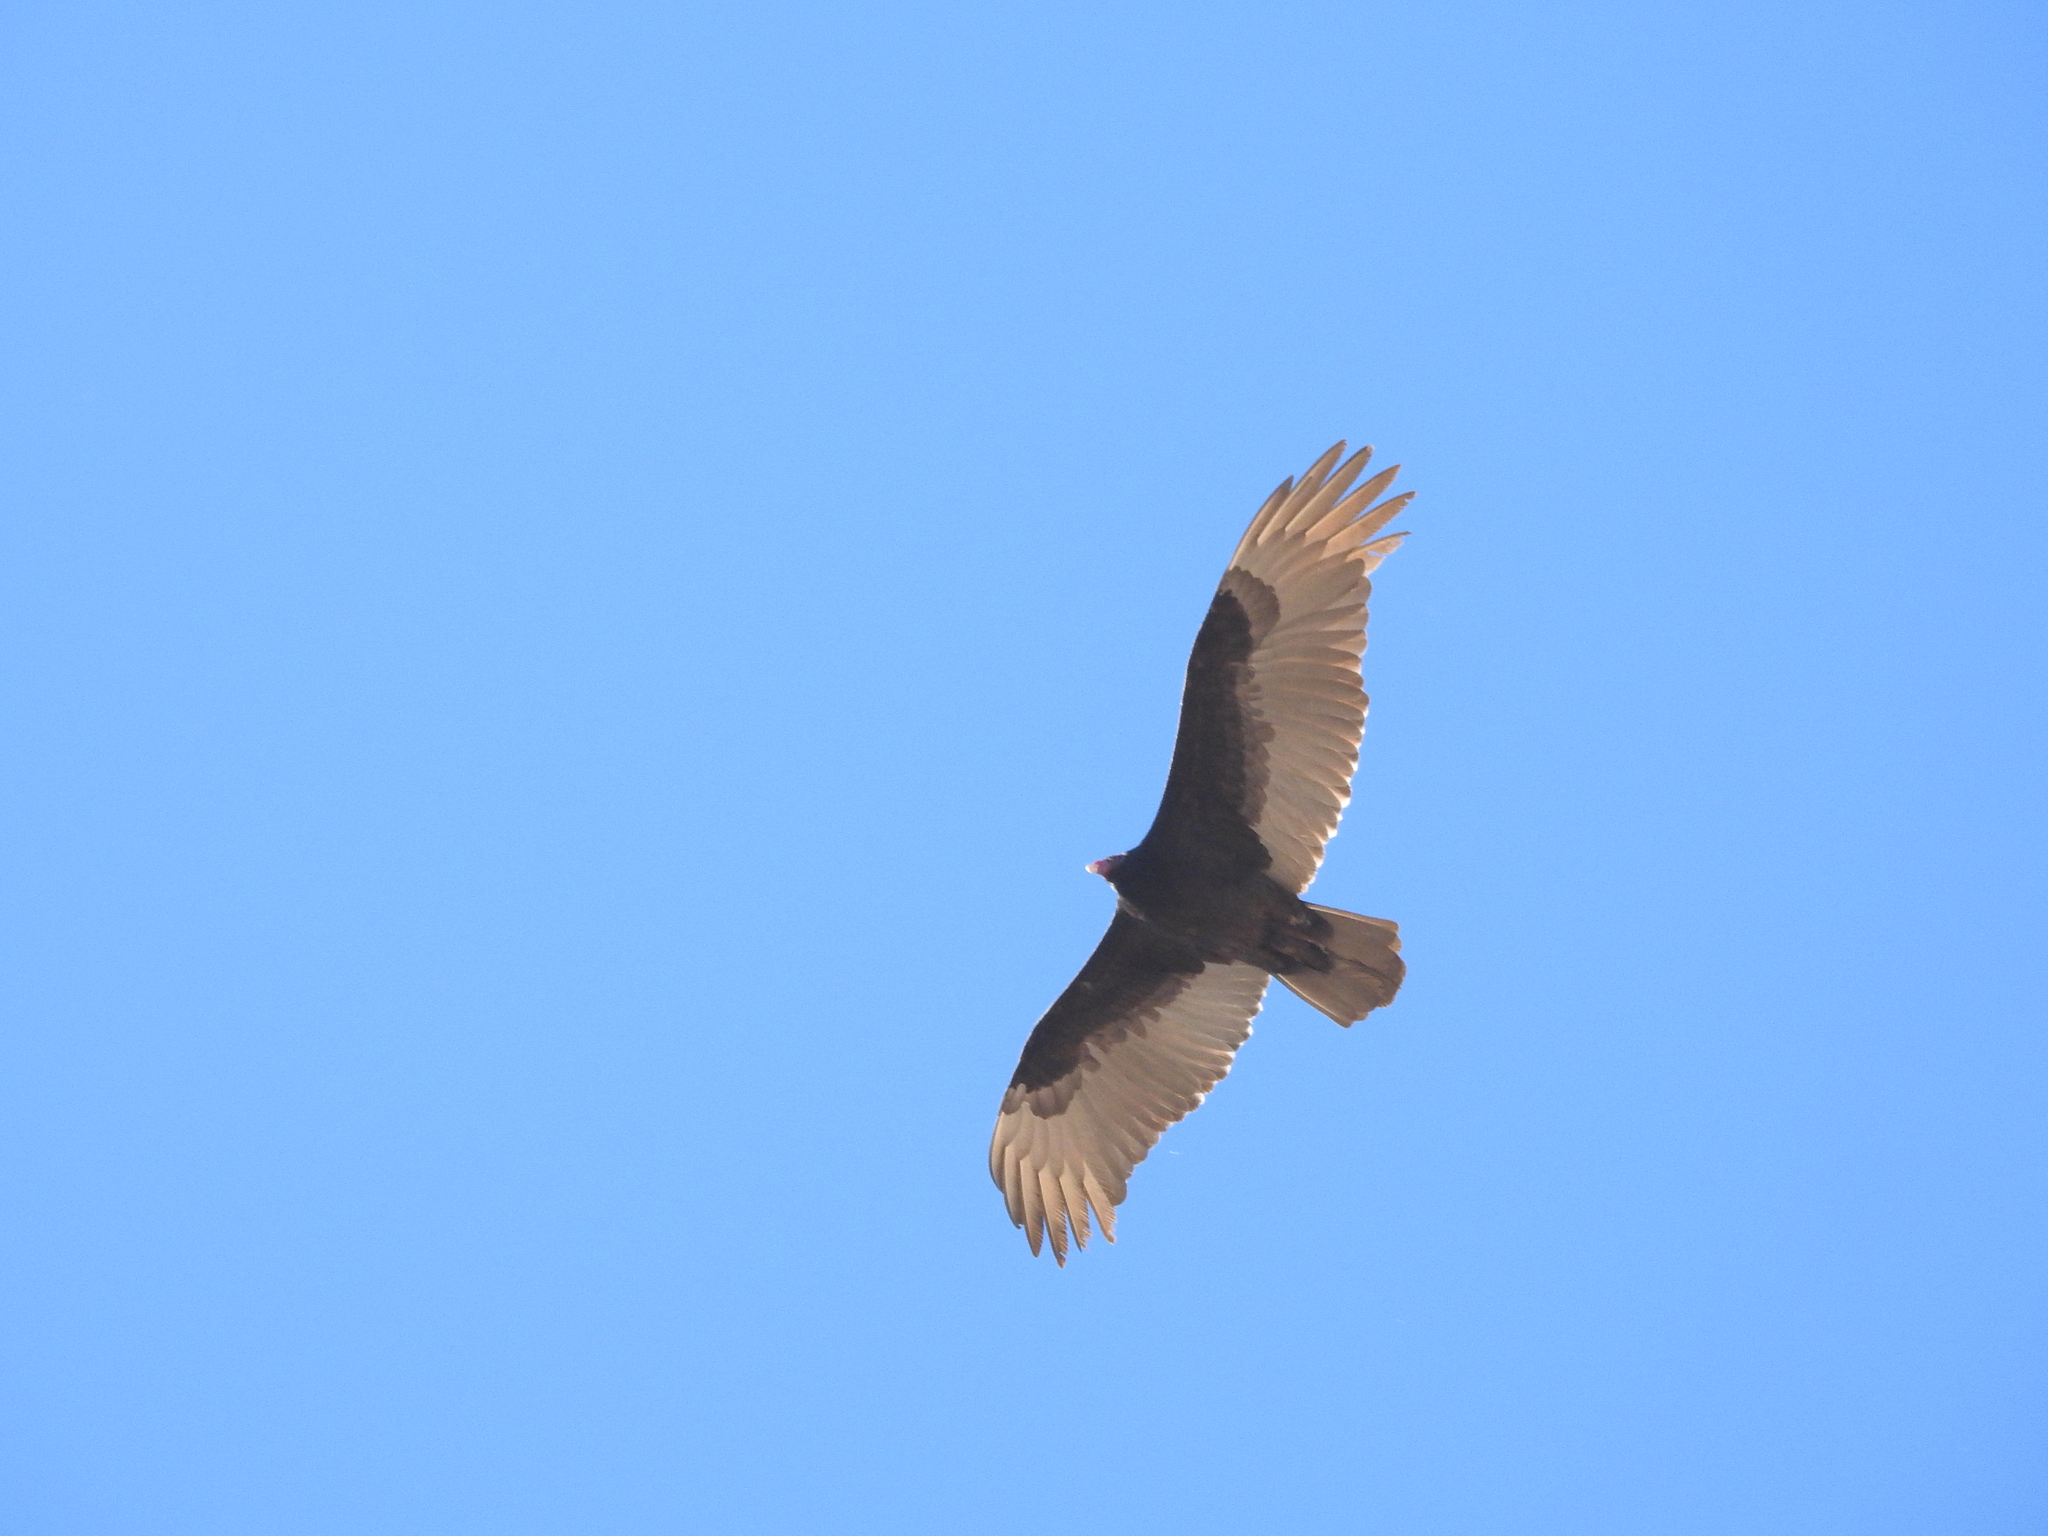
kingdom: Animalia
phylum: Chordata
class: Aves
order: Accipitriformes
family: Cathartidae
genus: Cathartes
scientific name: Cathartes aura
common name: Turkey vulture
